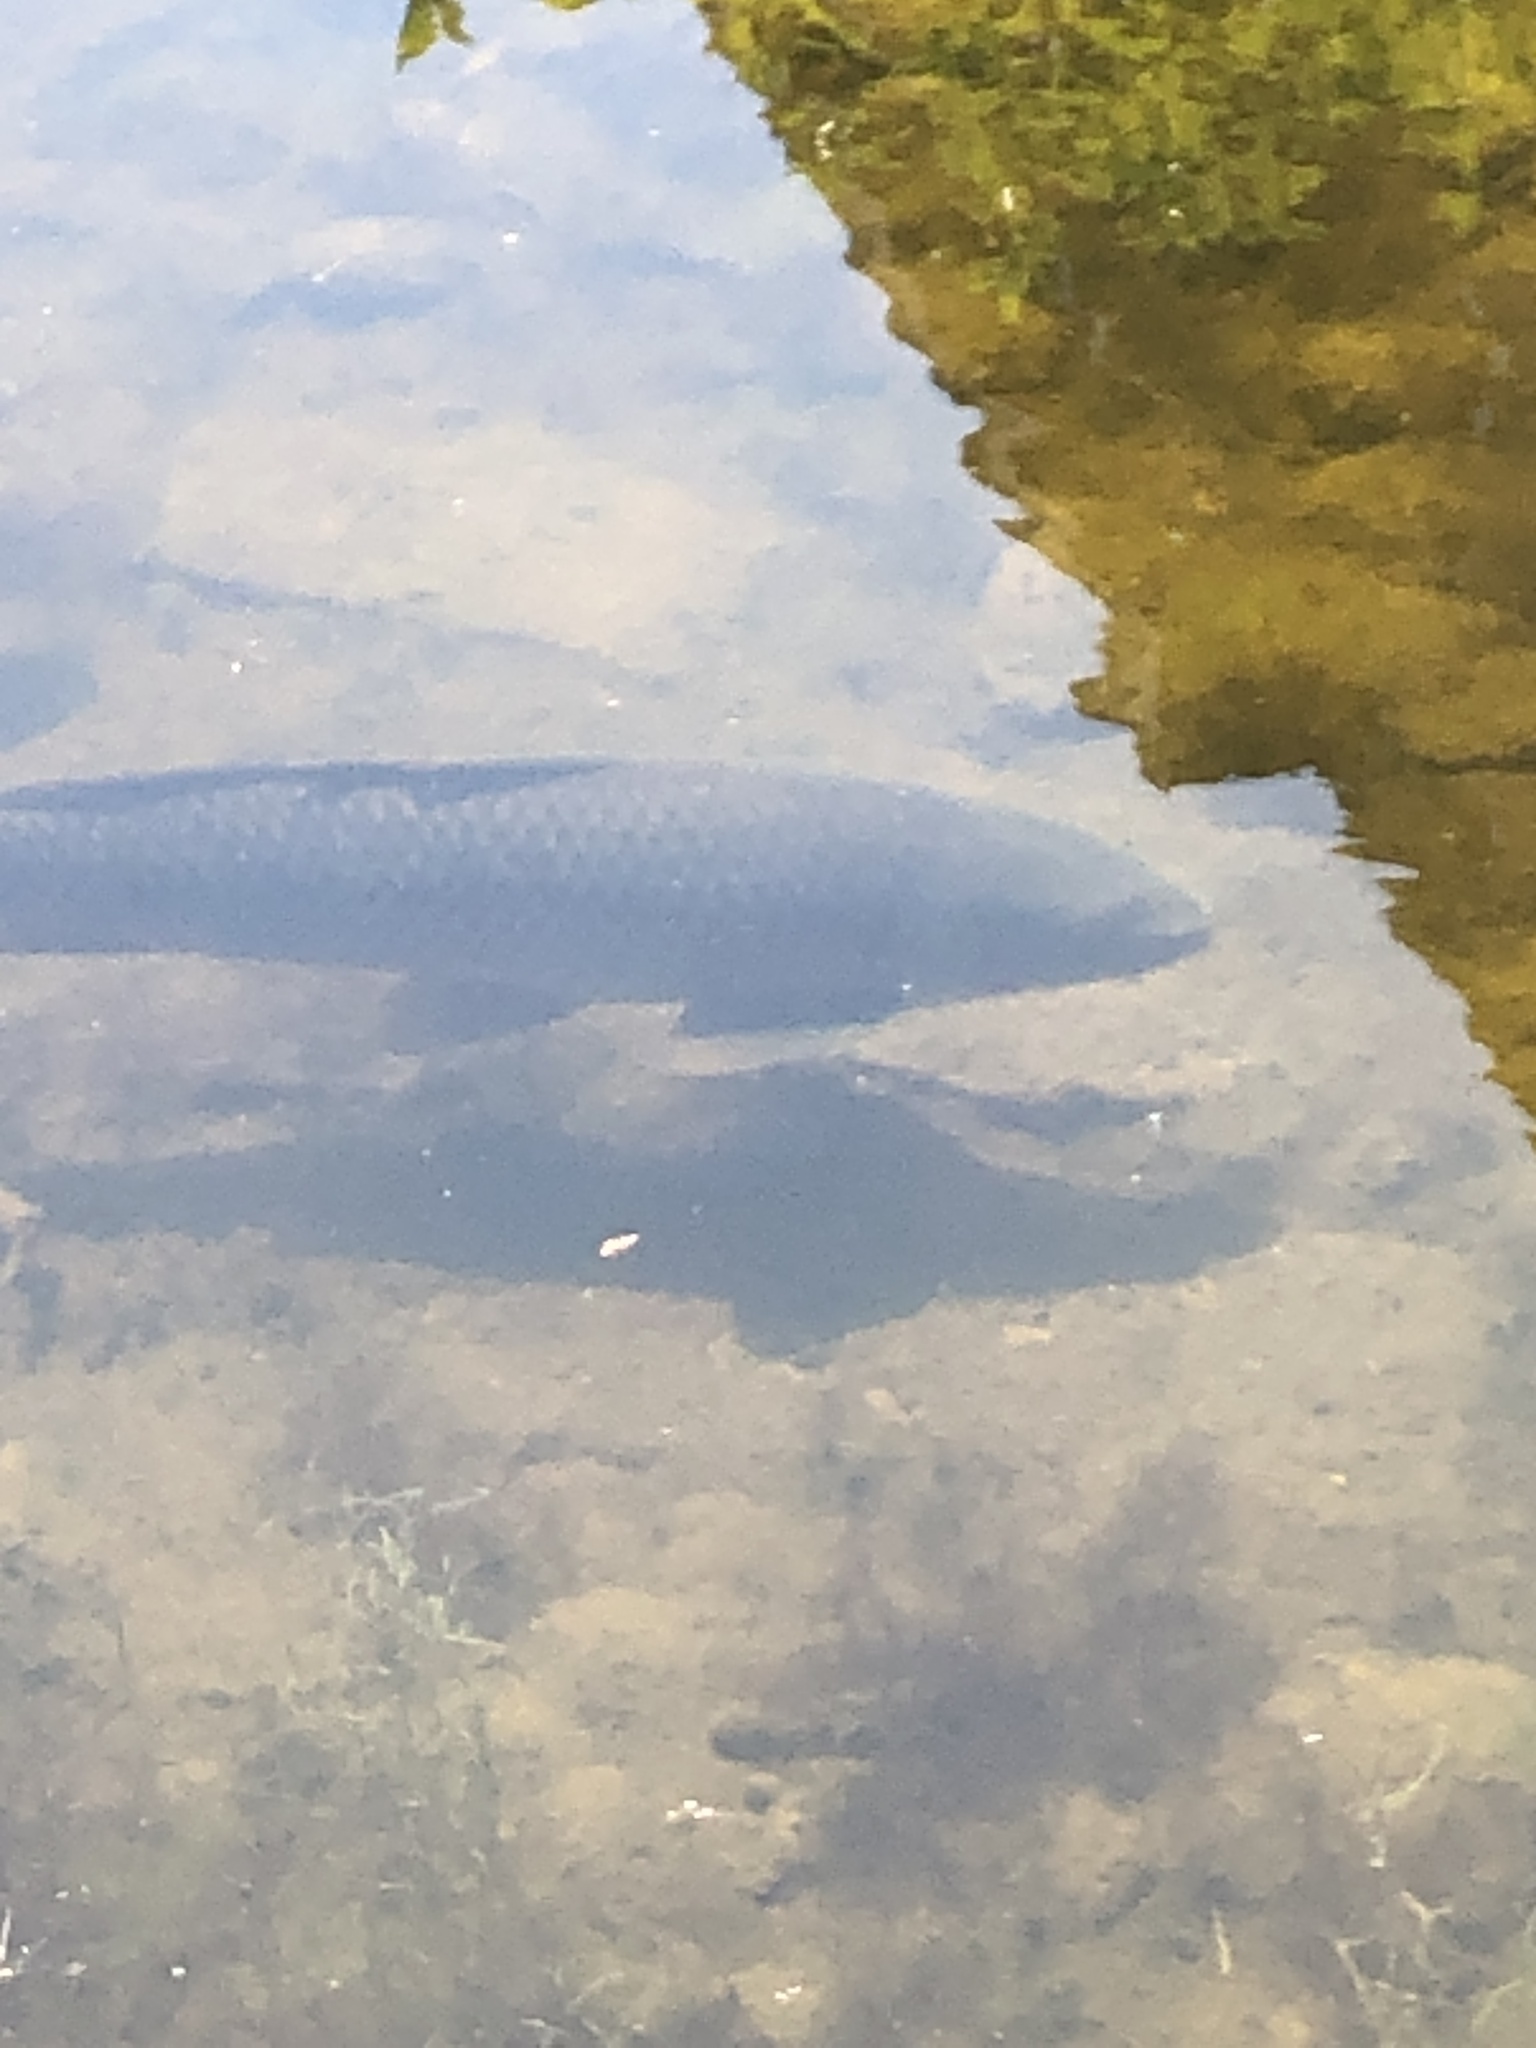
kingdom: Animalia
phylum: Chordata
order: Cypriniformes
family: Cyprinidae
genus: Cyprinus
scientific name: Cyprinus carpio
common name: Common carp
